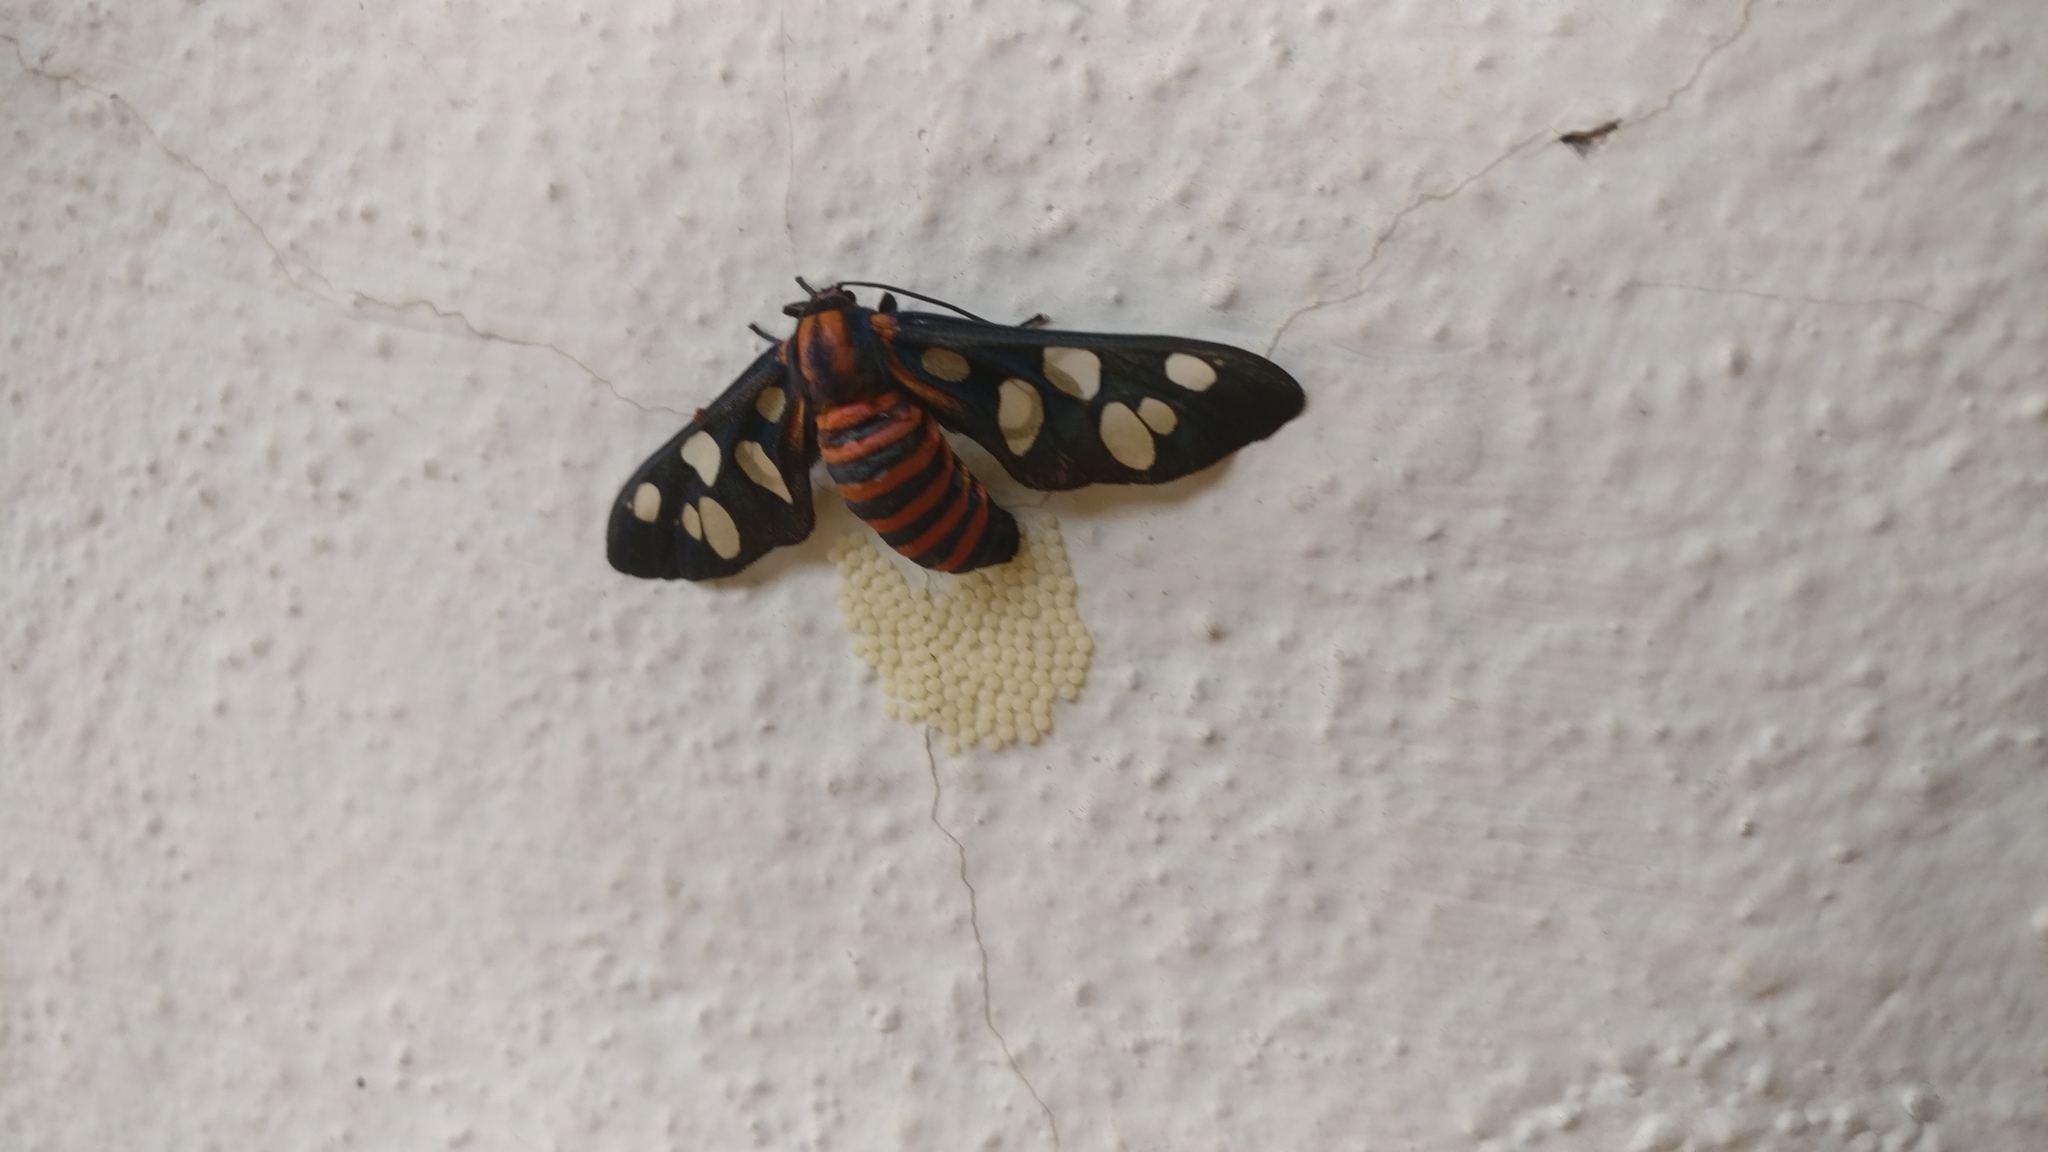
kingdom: Animalia
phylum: Arthropoda
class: Insecta
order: Lepidoptera
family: Erebidae
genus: Amata
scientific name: Amata passalis
